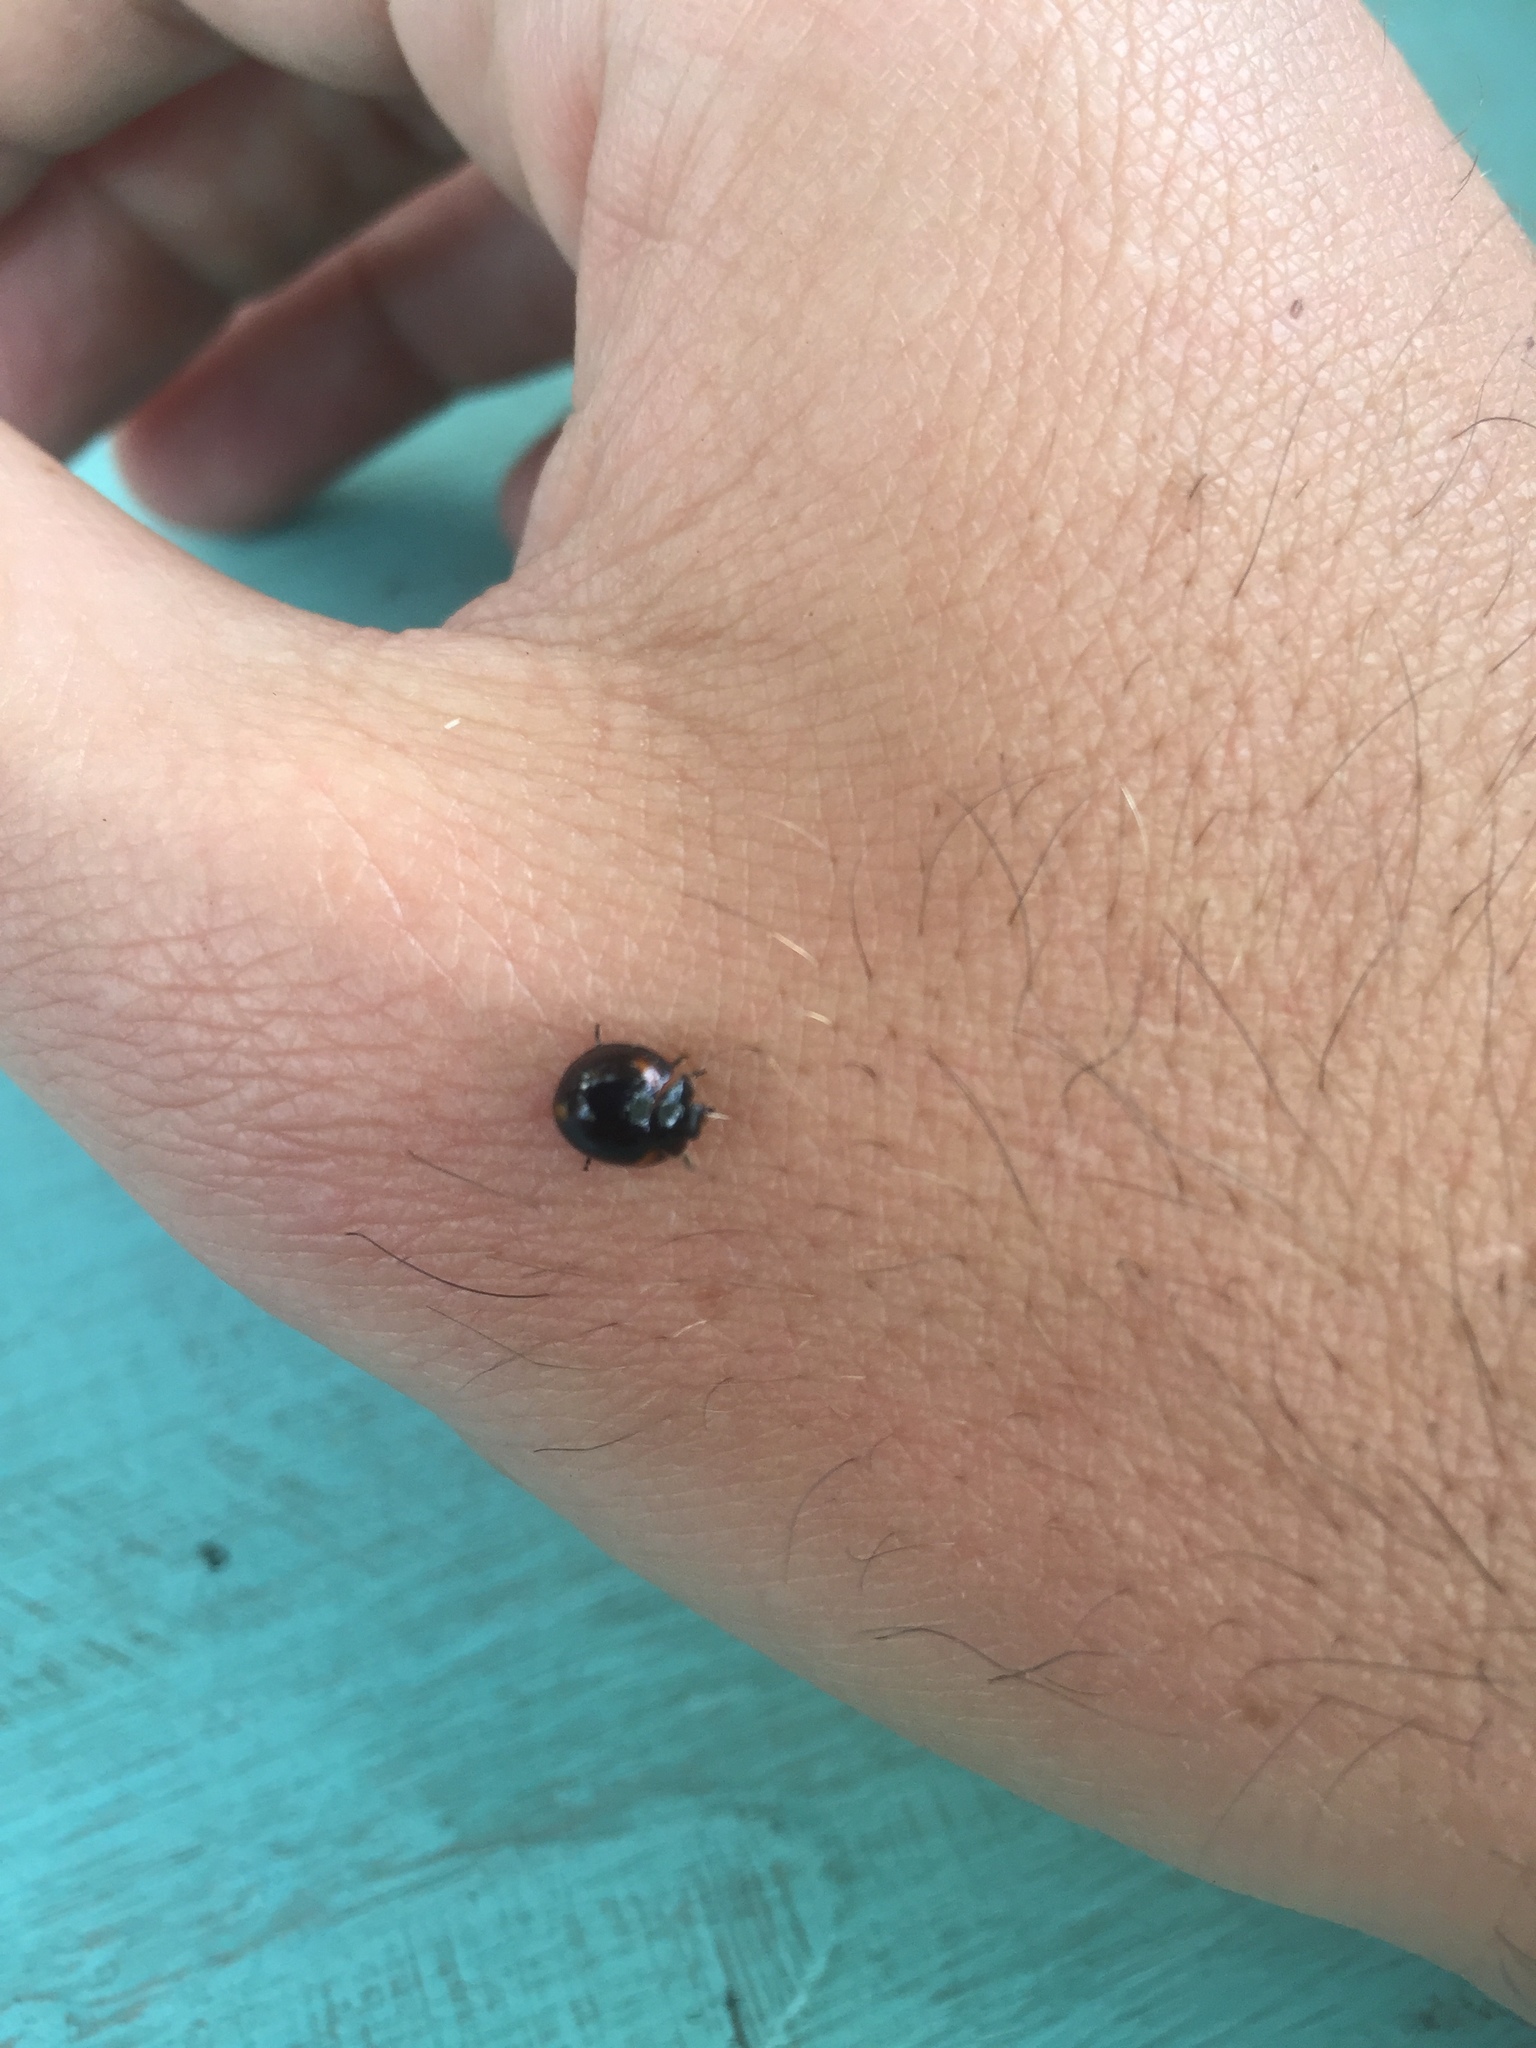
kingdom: Animalia
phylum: Arthropoda
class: Insecta
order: Coleoptera
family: Coccinellidae
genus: Axion
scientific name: Axion tripustulatum
